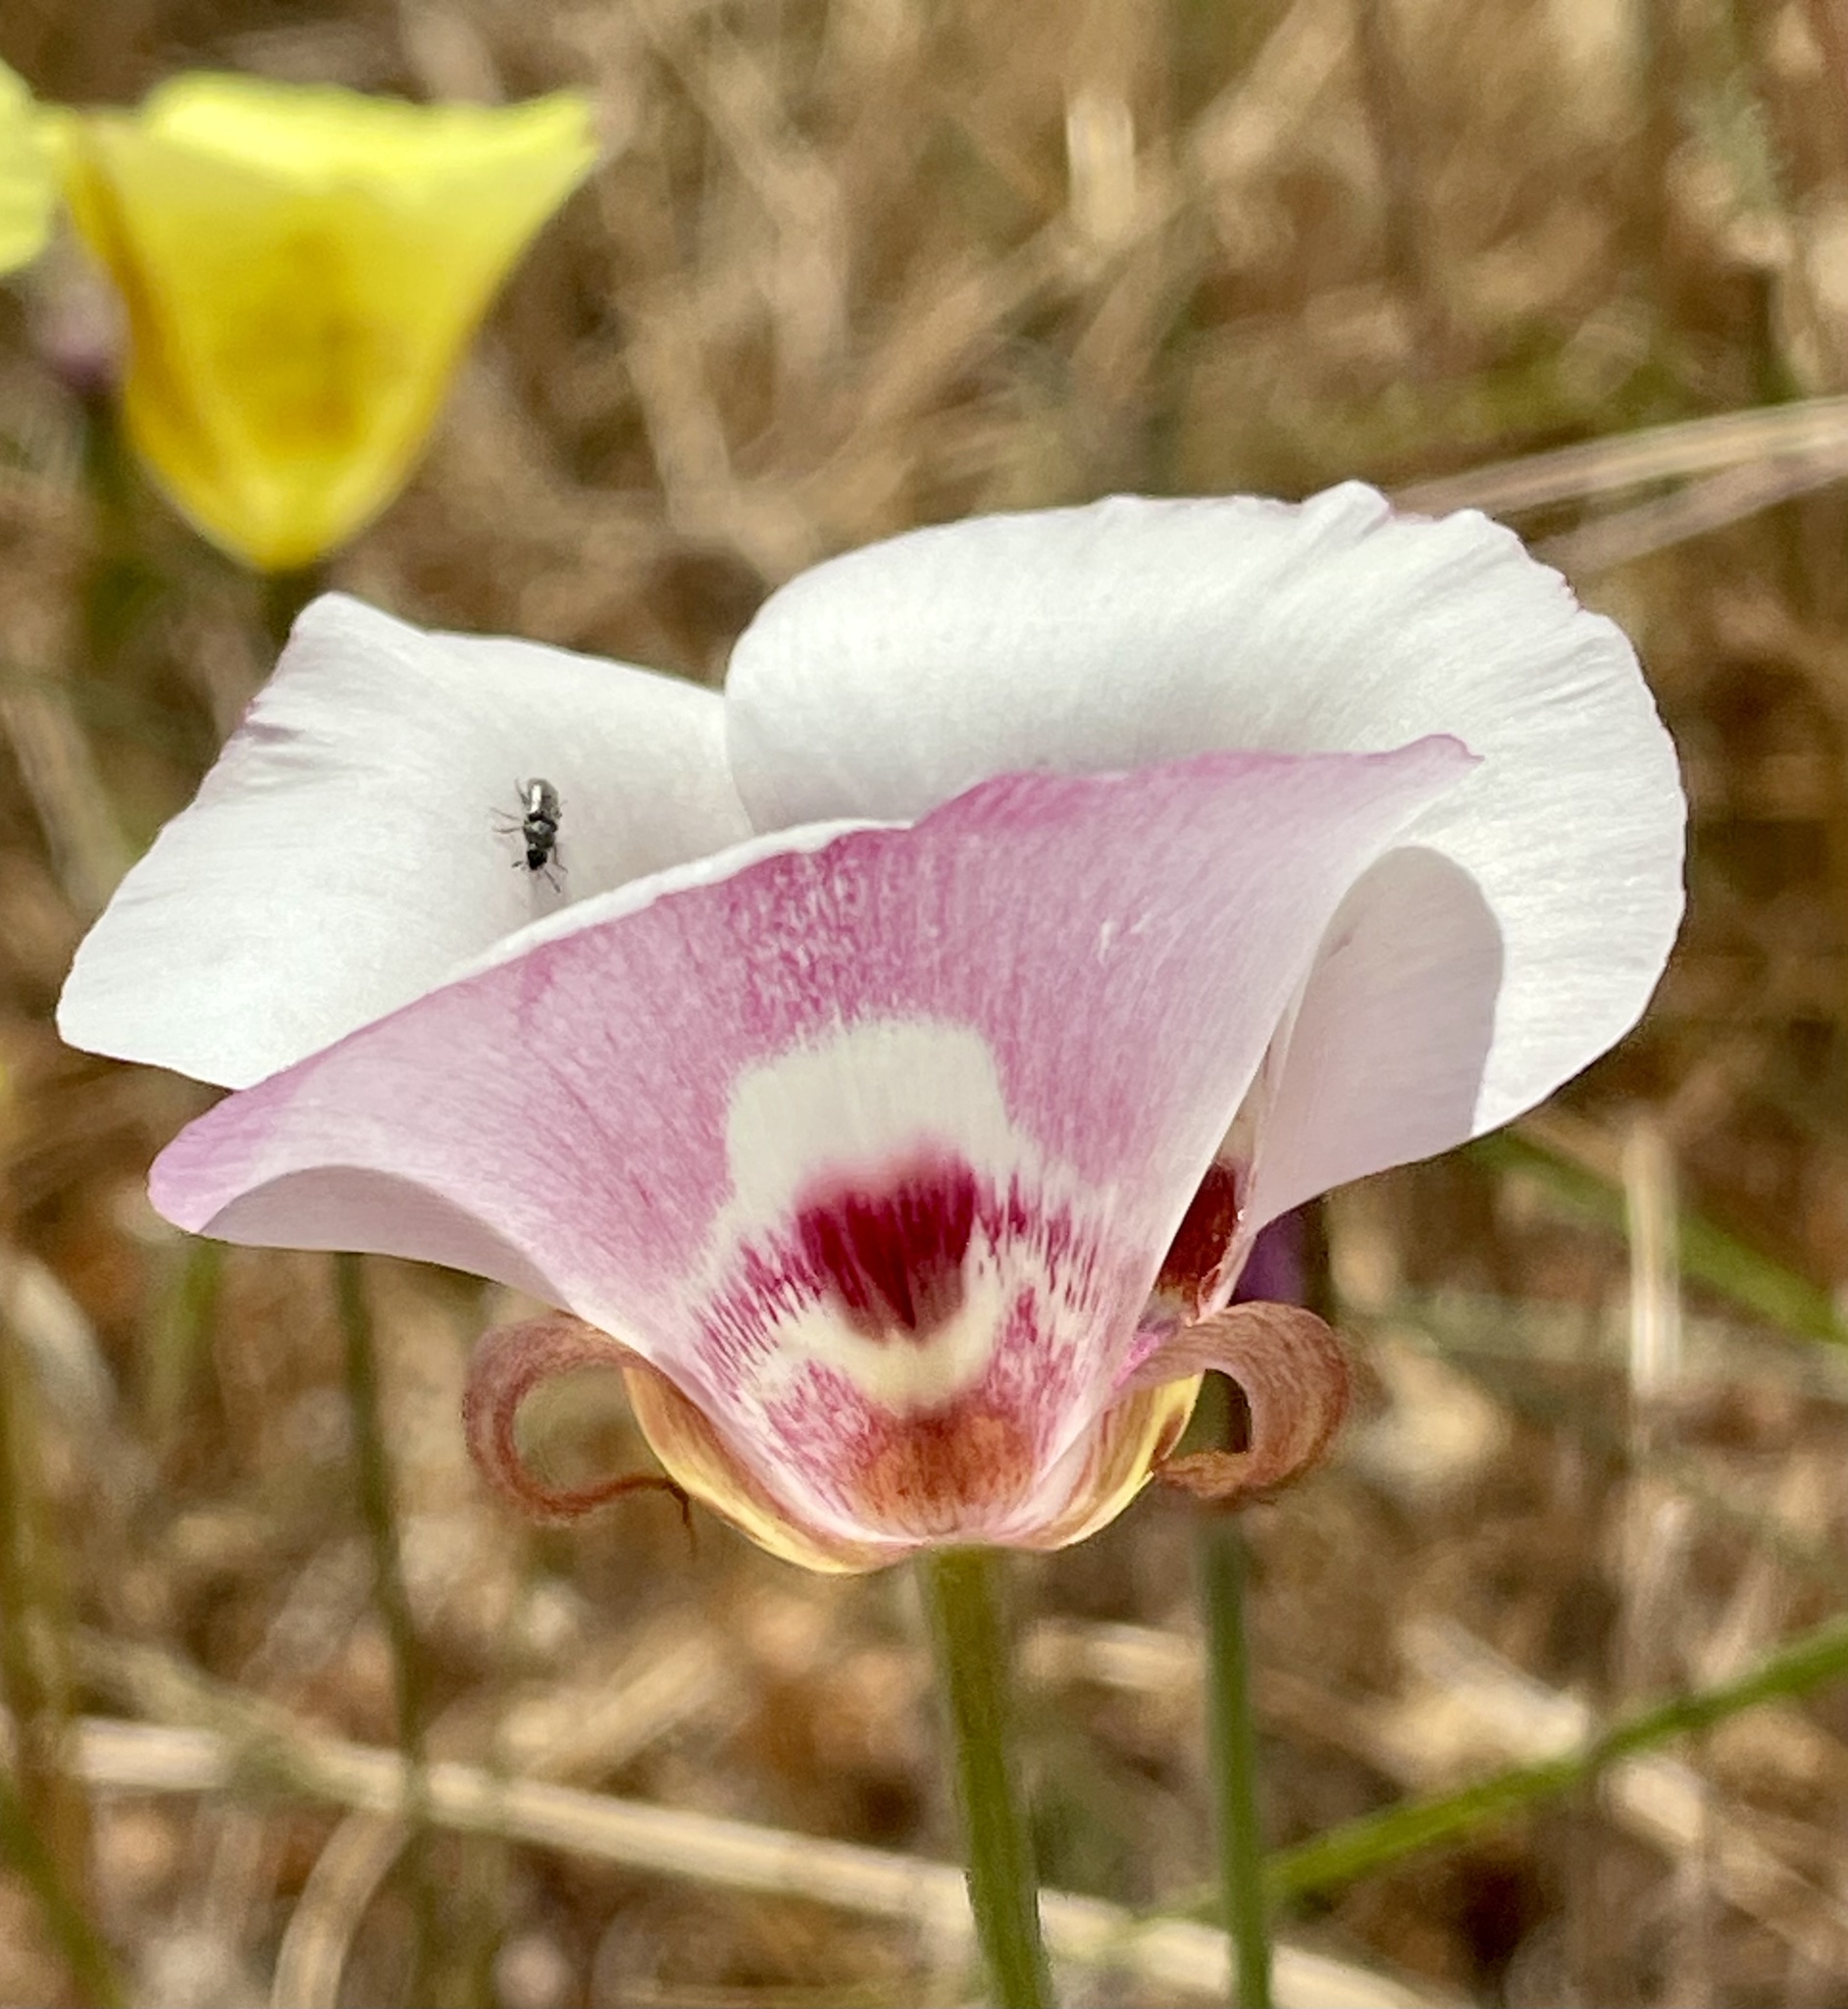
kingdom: Plantae
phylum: Tracheophyta
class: Liliopsida
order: Liliales
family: Liliaceae
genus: Calochortus
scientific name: Calochortus argillosus
